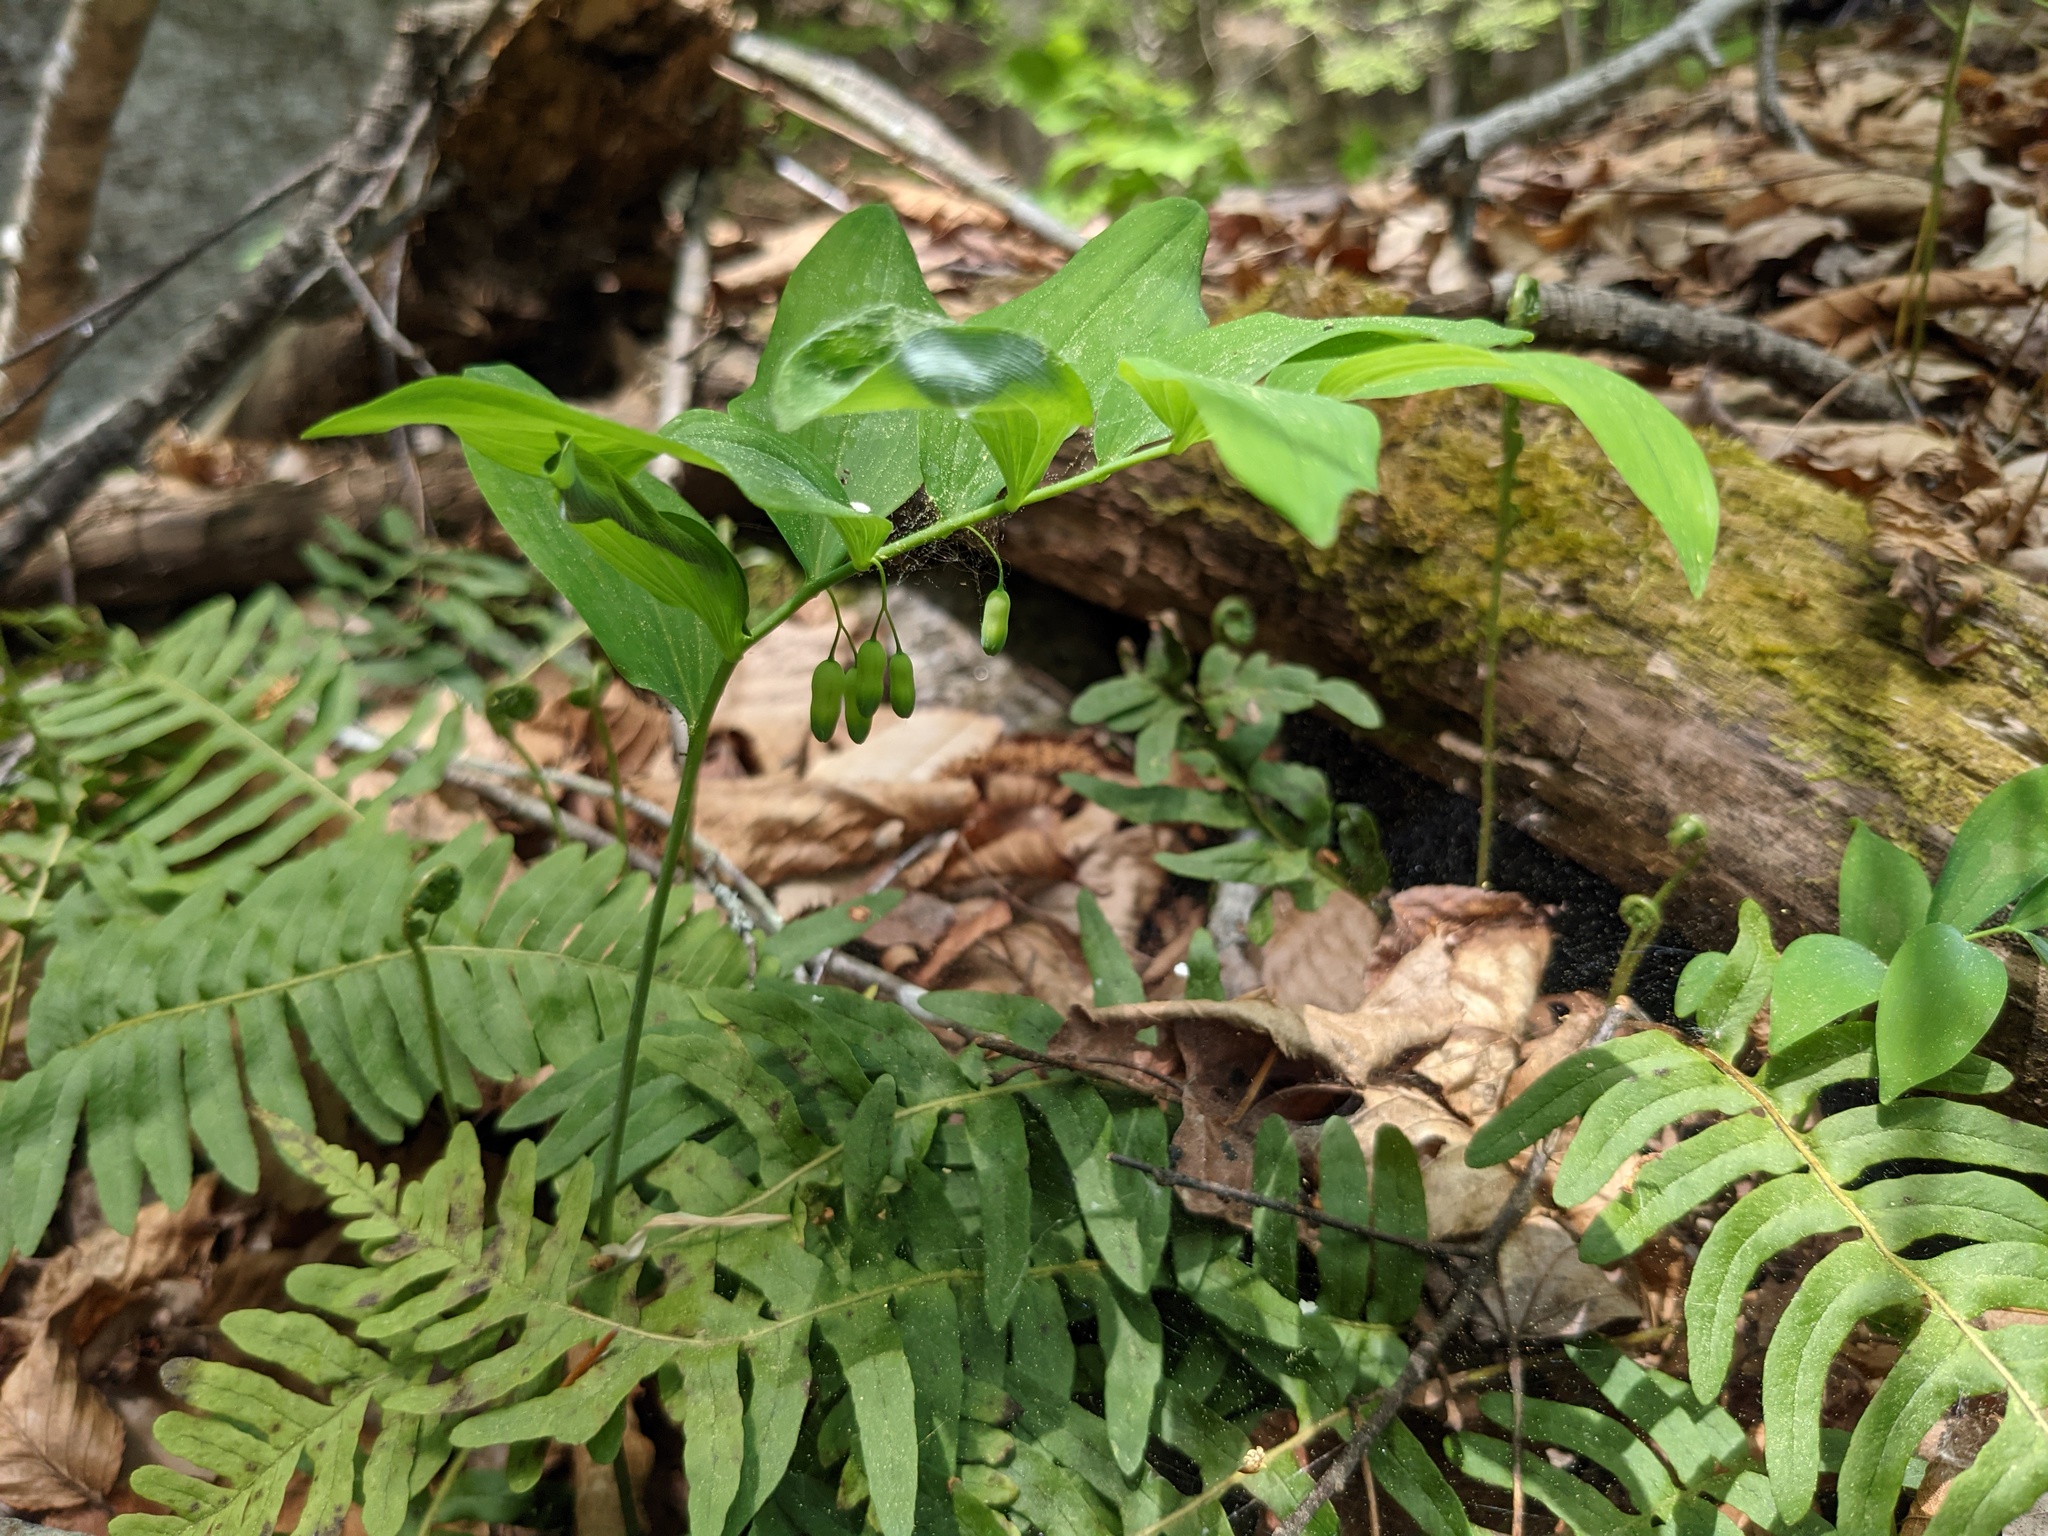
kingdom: Plantae
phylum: Tracheophyta
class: Liliopsida
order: Asparagales
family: Asparagaceae
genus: Polygonatum
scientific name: Polygonatum pubescens
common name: Downy solomon's seal
